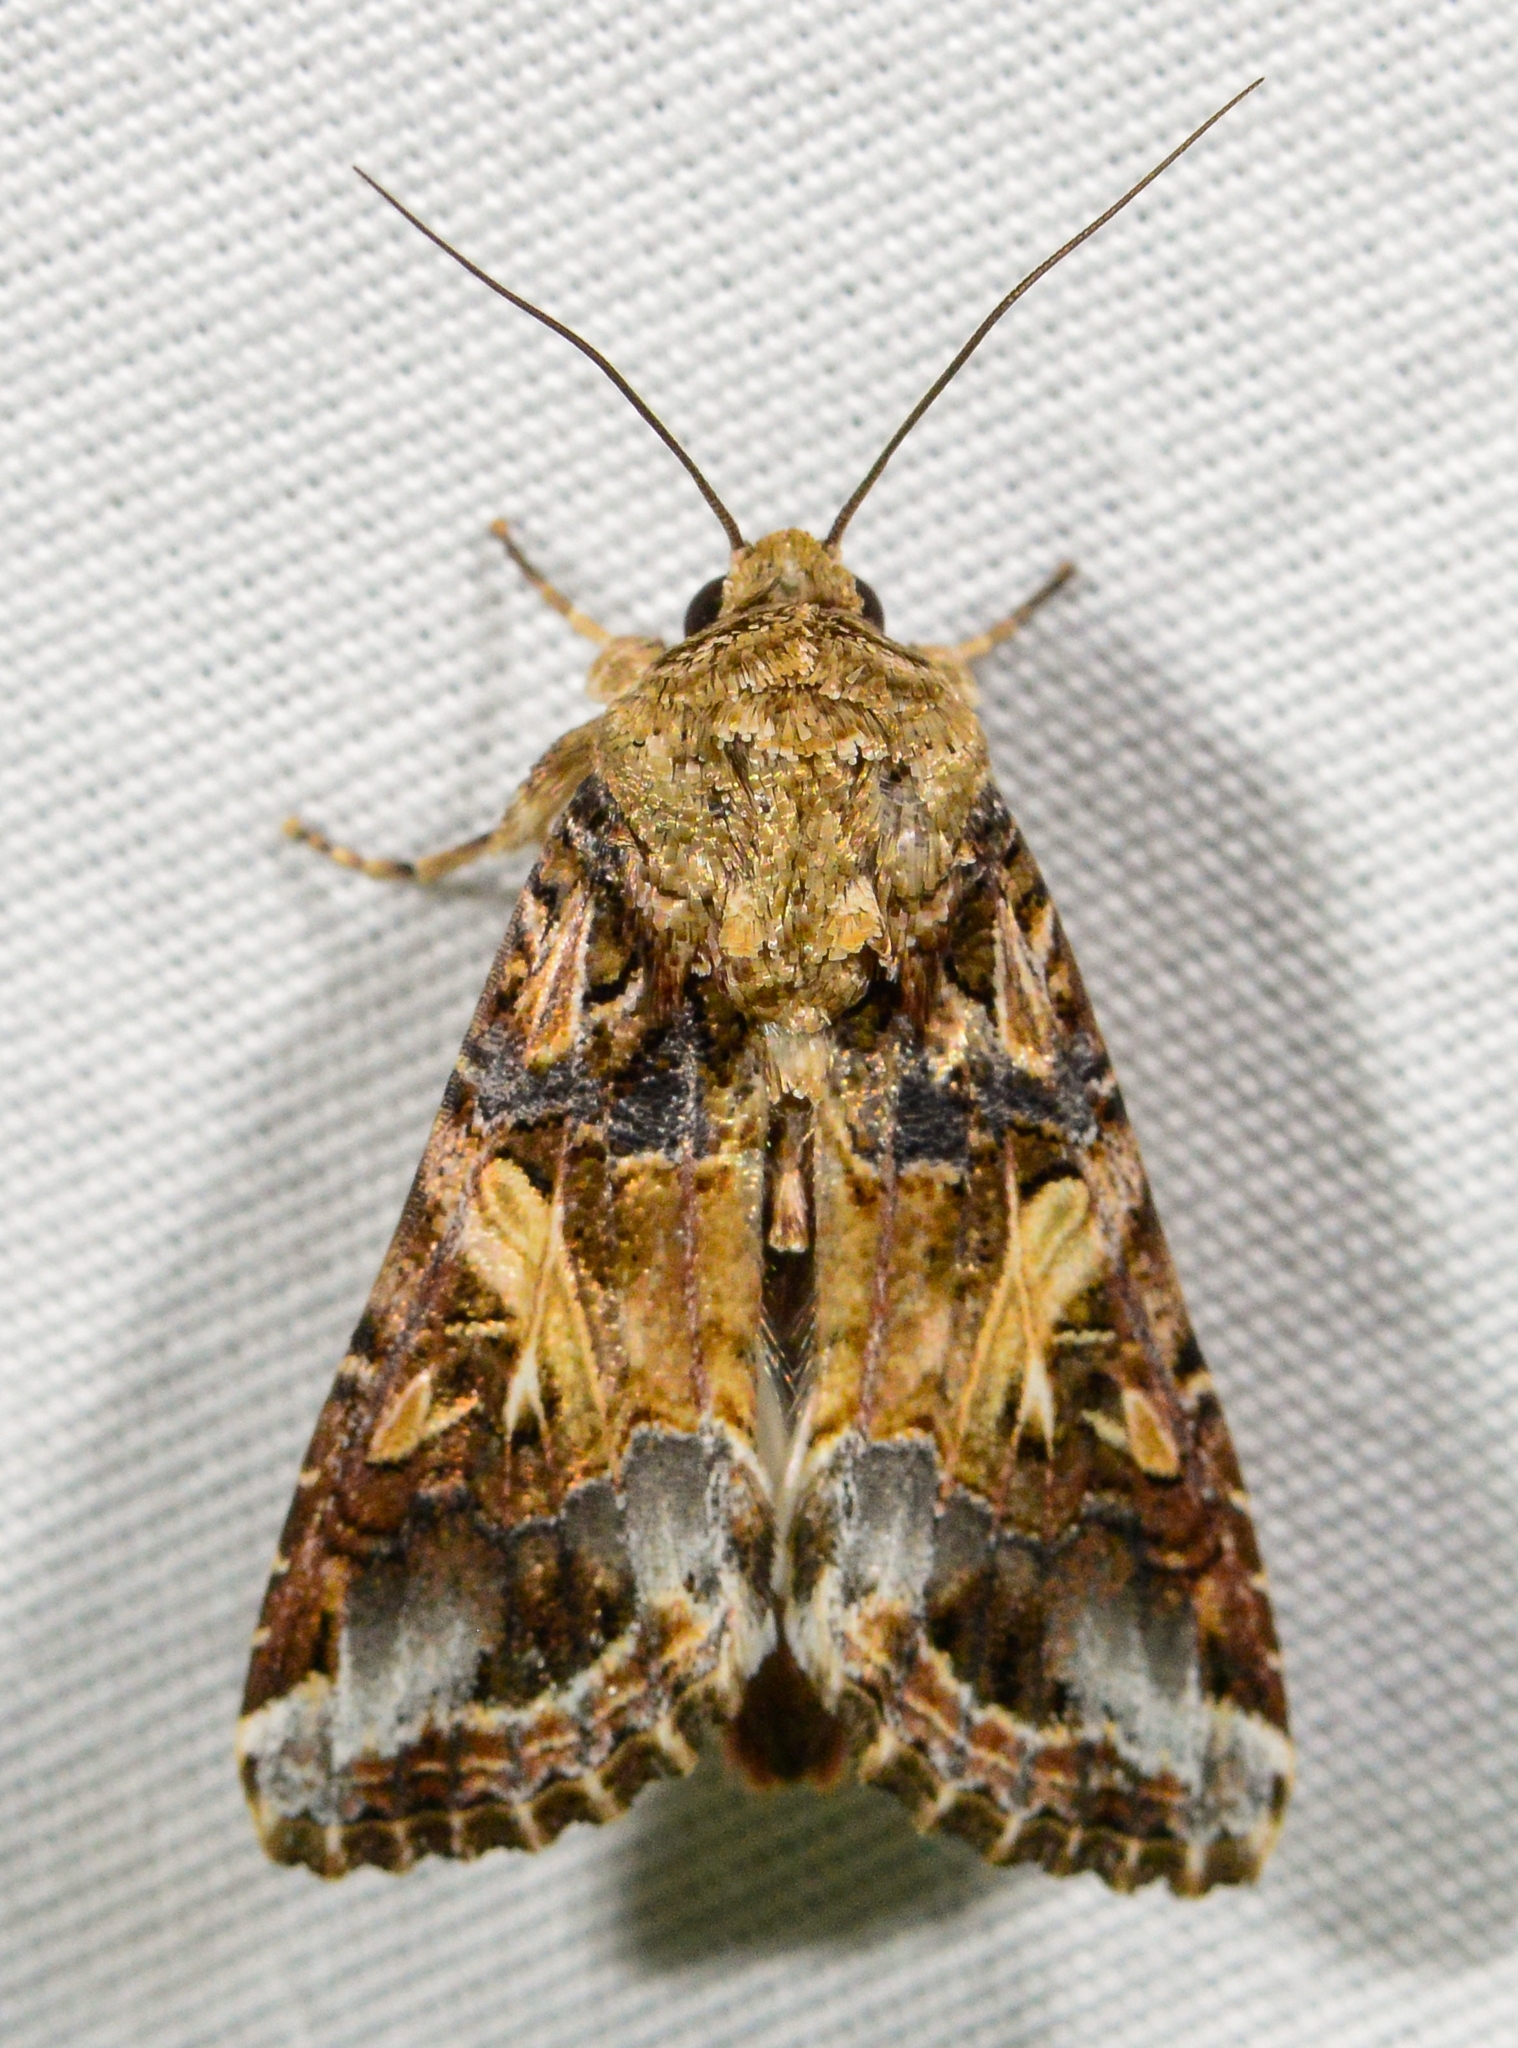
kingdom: Animalia
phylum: Arthropoda
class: Insecta
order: Lepidoptera
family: Noctuidae
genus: Spodoptera
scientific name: Spodoptera ornithogalli
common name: Yellow-striped armyworm
